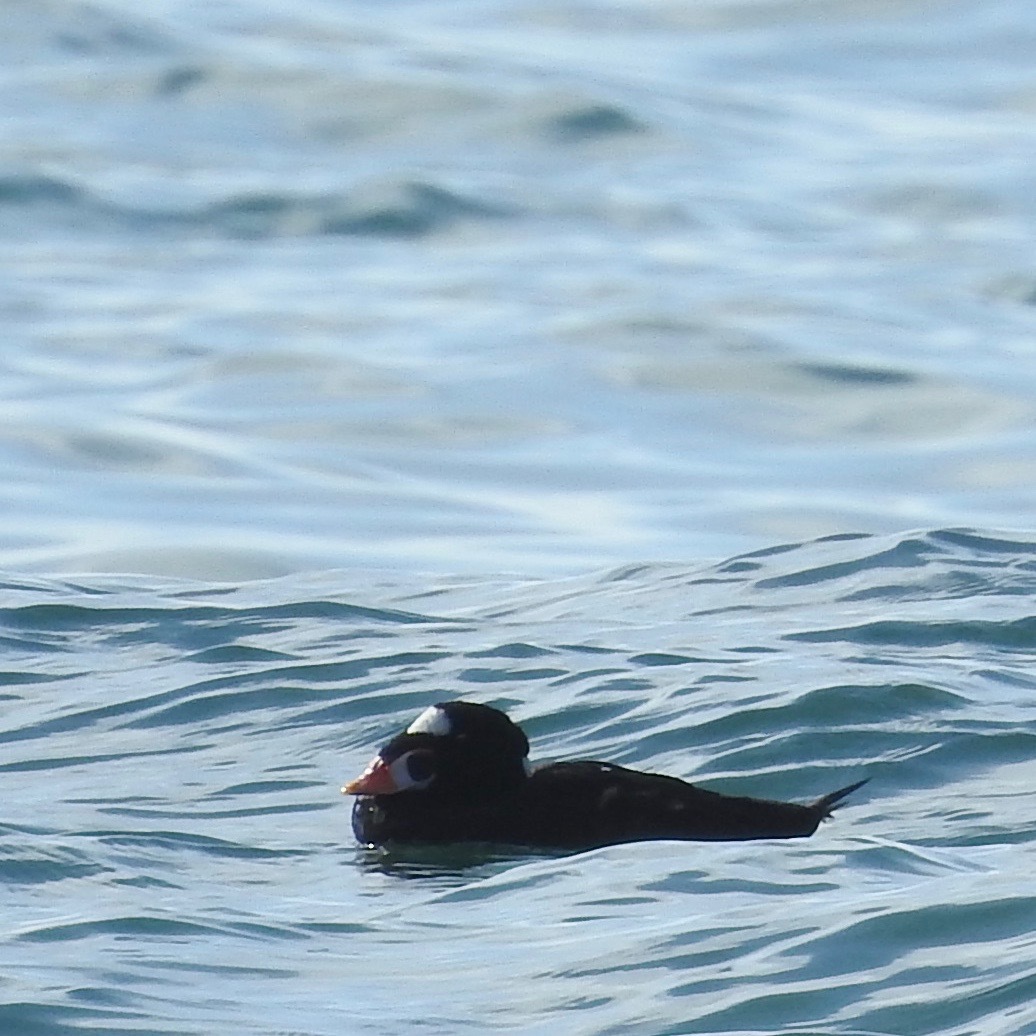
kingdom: Animalia
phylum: Chordata
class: Aves
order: Anseriformes
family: Anatidae
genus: Melanitta
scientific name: Melanitta perspicillata
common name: Surf scoter
